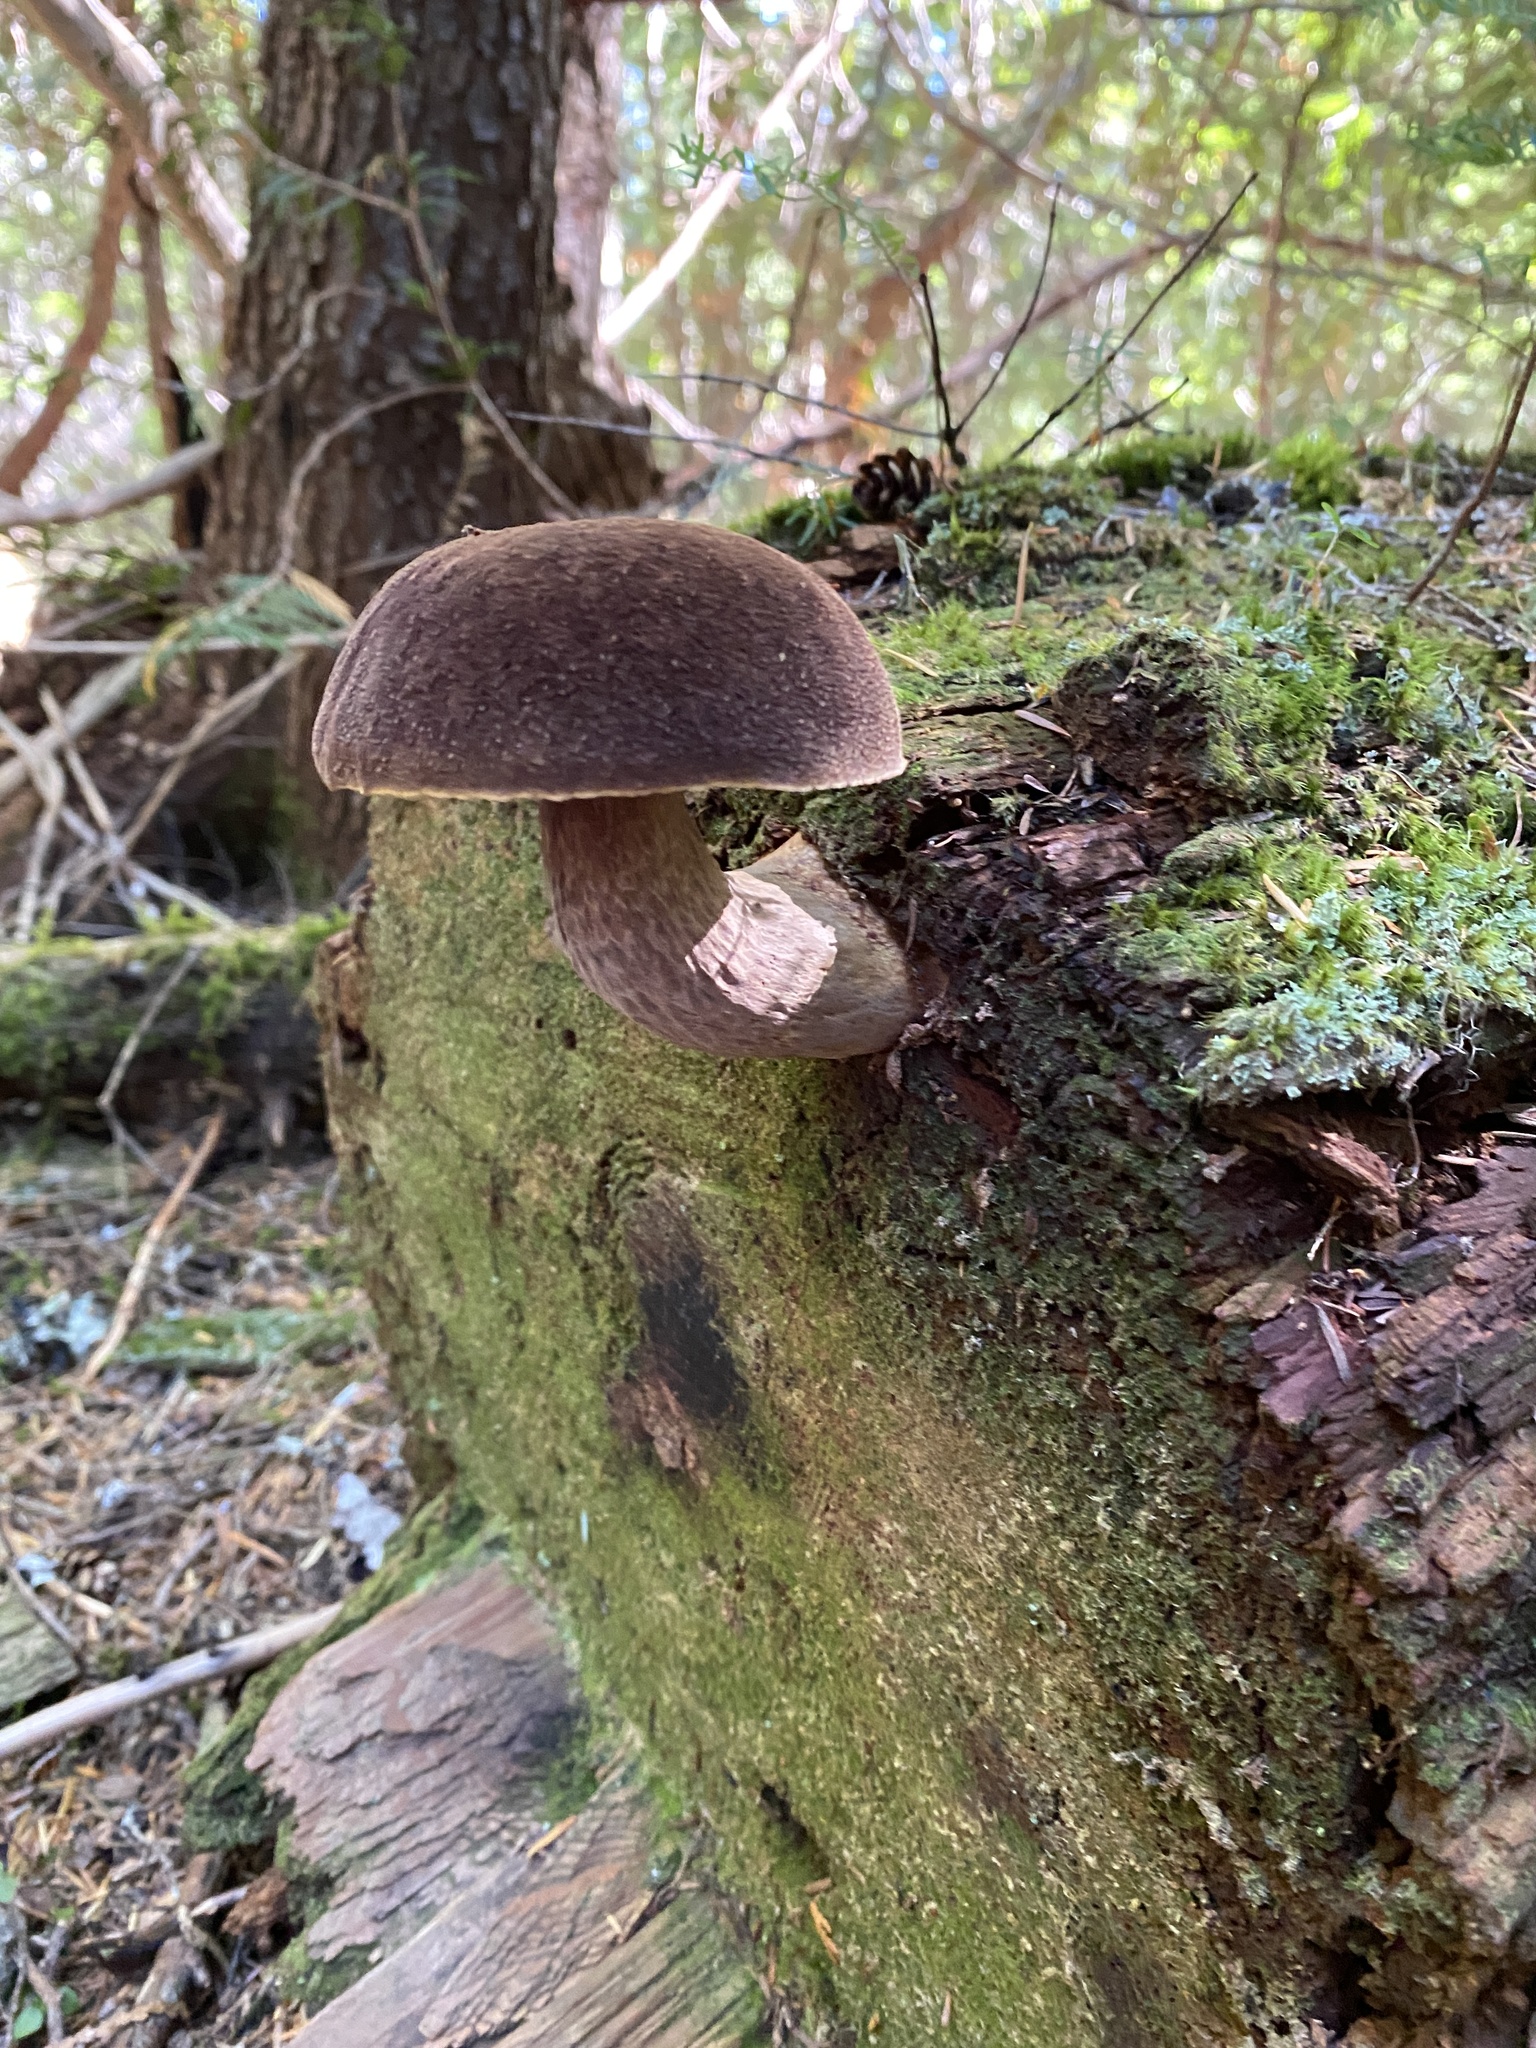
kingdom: Fungi
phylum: Basidiomycota
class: Agaricomycetes
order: Boletales
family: Boletaceae
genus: Aureoboletus
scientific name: Aureoboletus mirabilis
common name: Admirable bolete
